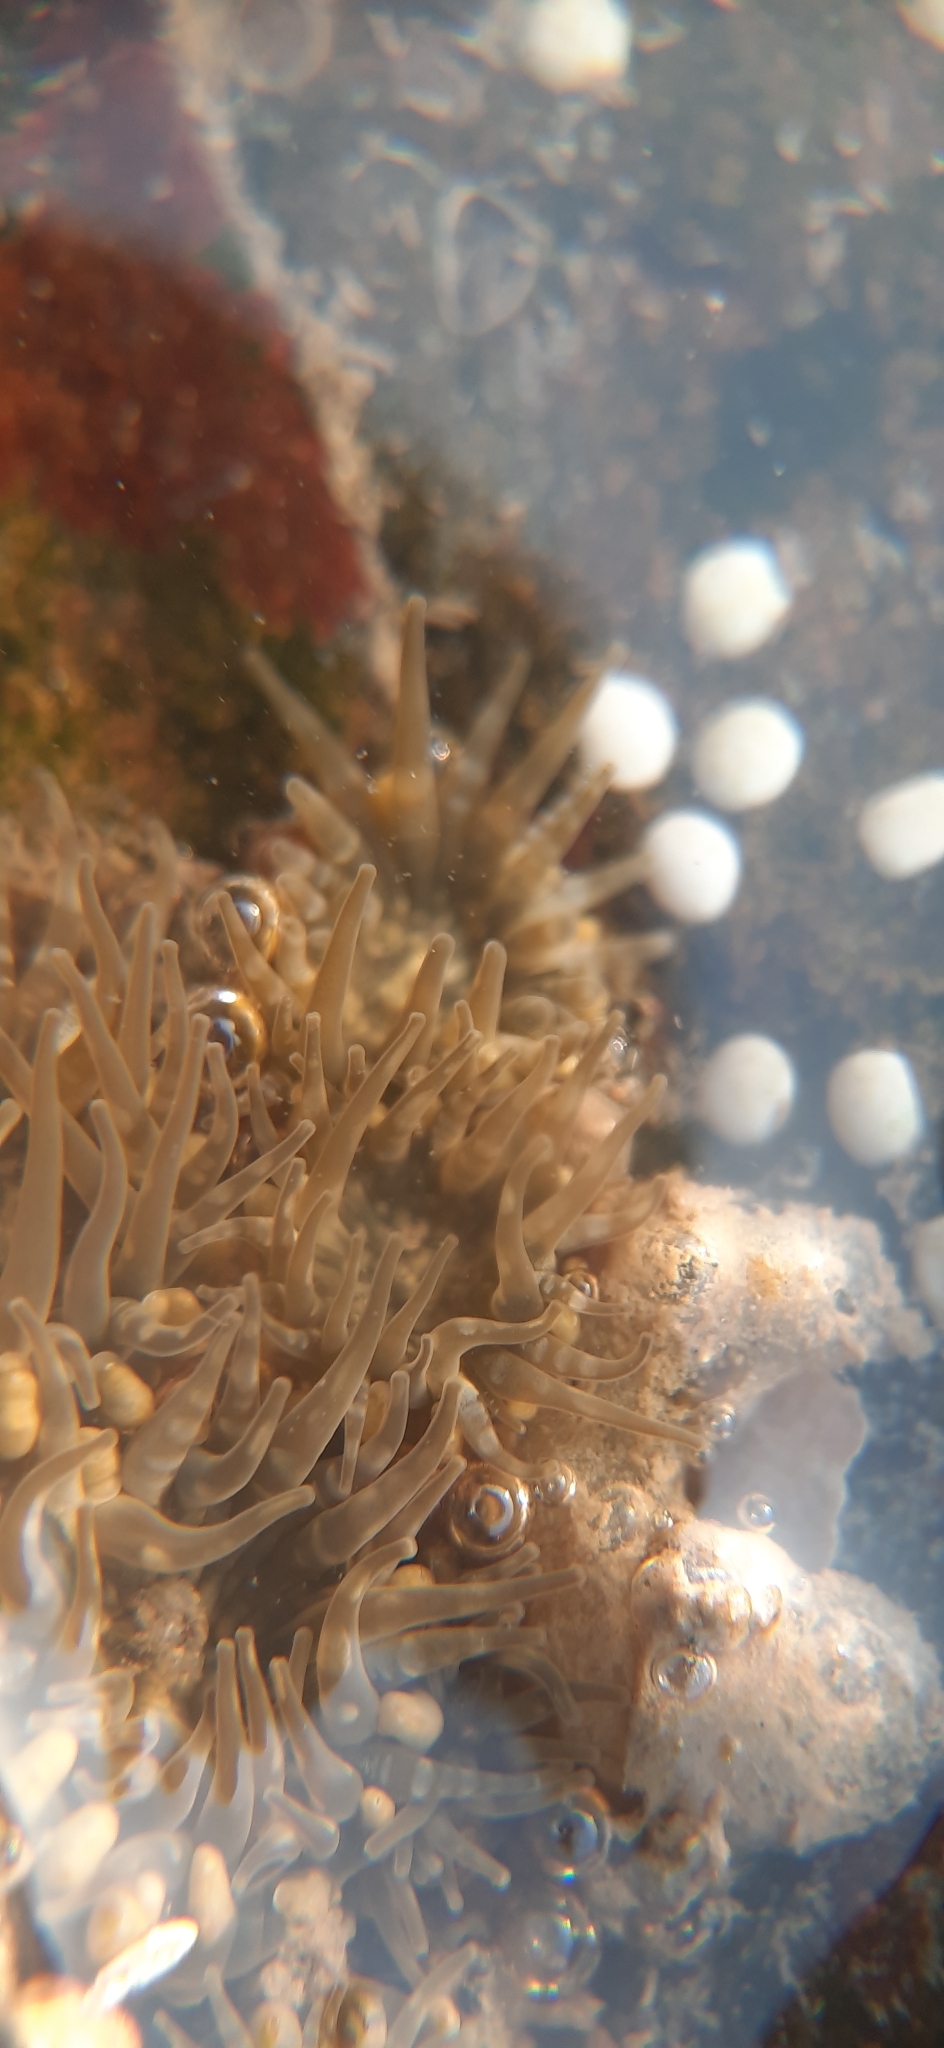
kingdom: Animalia
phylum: Cnidaria
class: Anthozoa
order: Actiniaria
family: Actiniidae
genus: Anthopleura
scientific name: Anthopleura dixoniana
